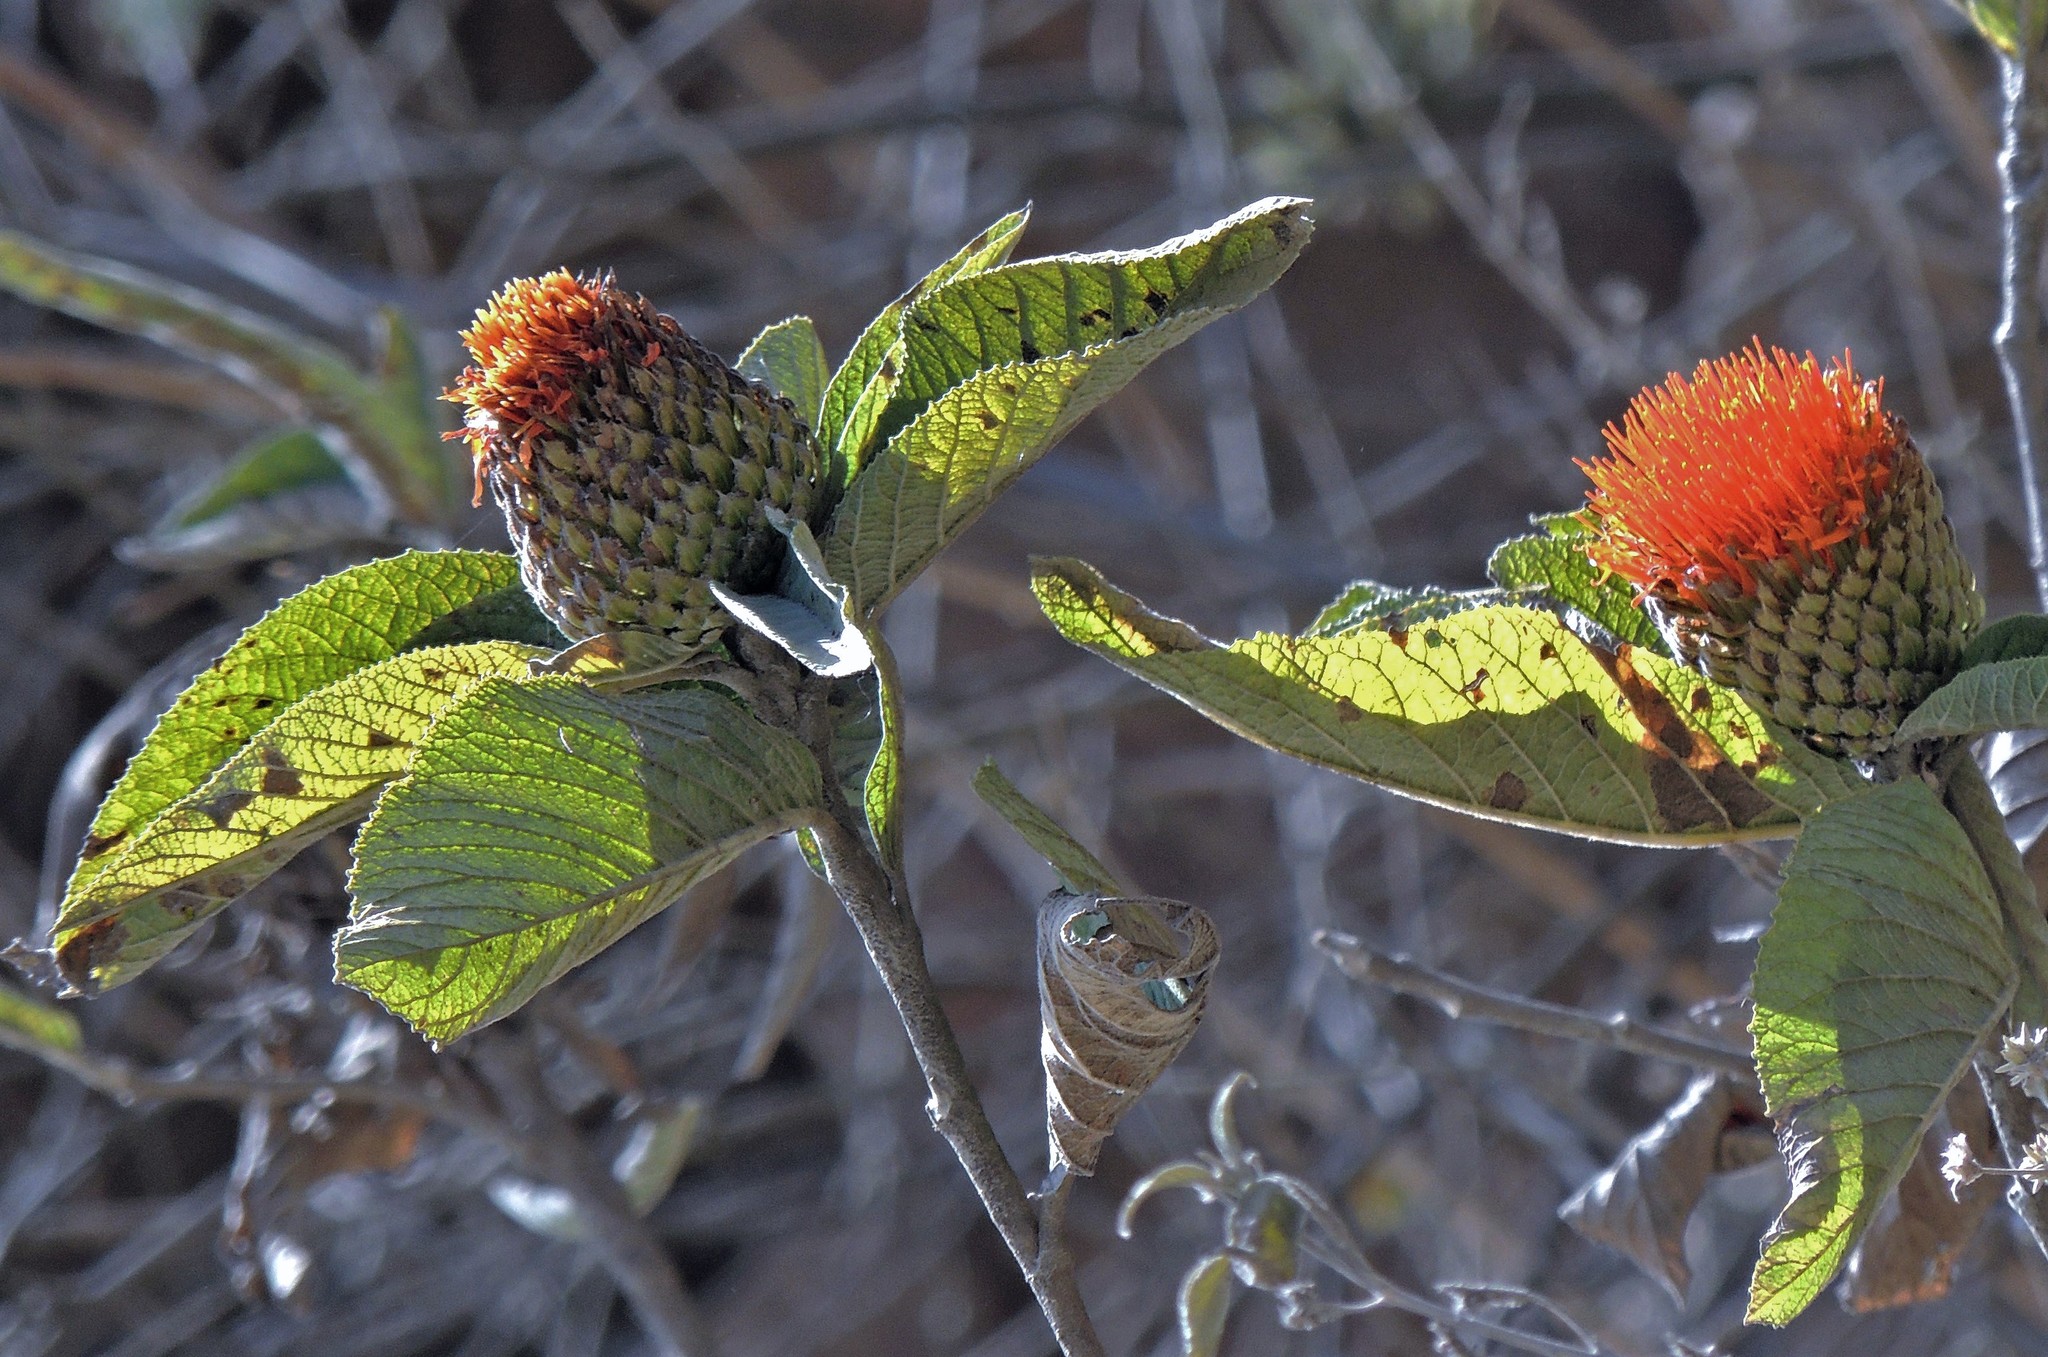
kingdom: Plantae
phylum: Tracheophyta
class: Magnoliopsida
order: Asterales
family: Asteraceae
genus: Cnicothamnus
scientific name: Cnicothamnus lorentzii
